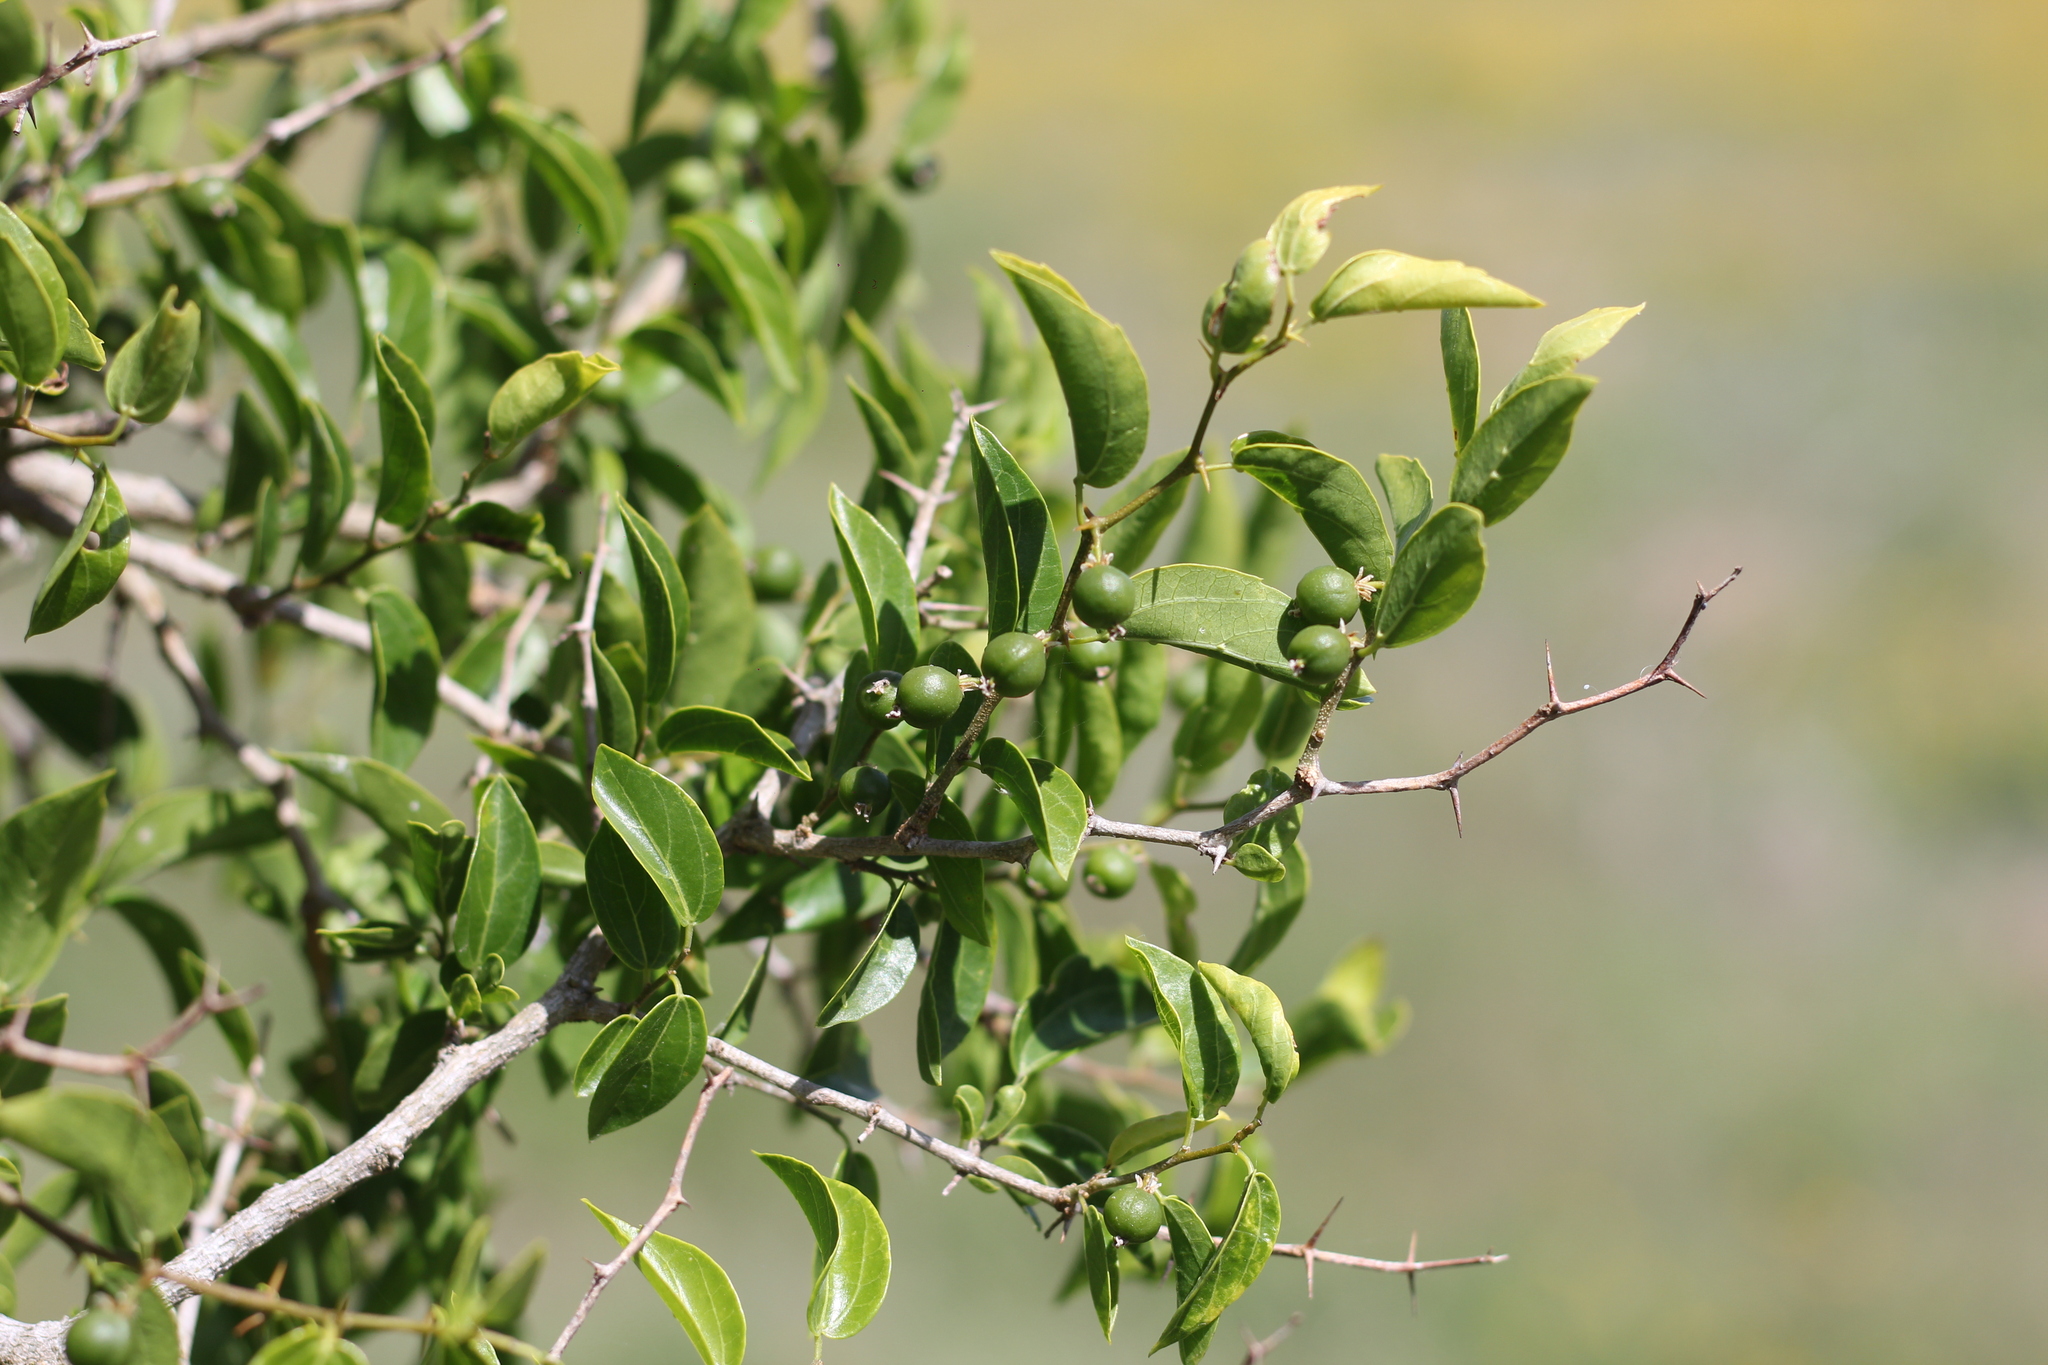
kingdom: Plantae
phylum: Tracheophyta
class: Magnoliopsida
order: Rosales
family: Cannabaceae
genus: Celtis
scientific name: Celtis tala
